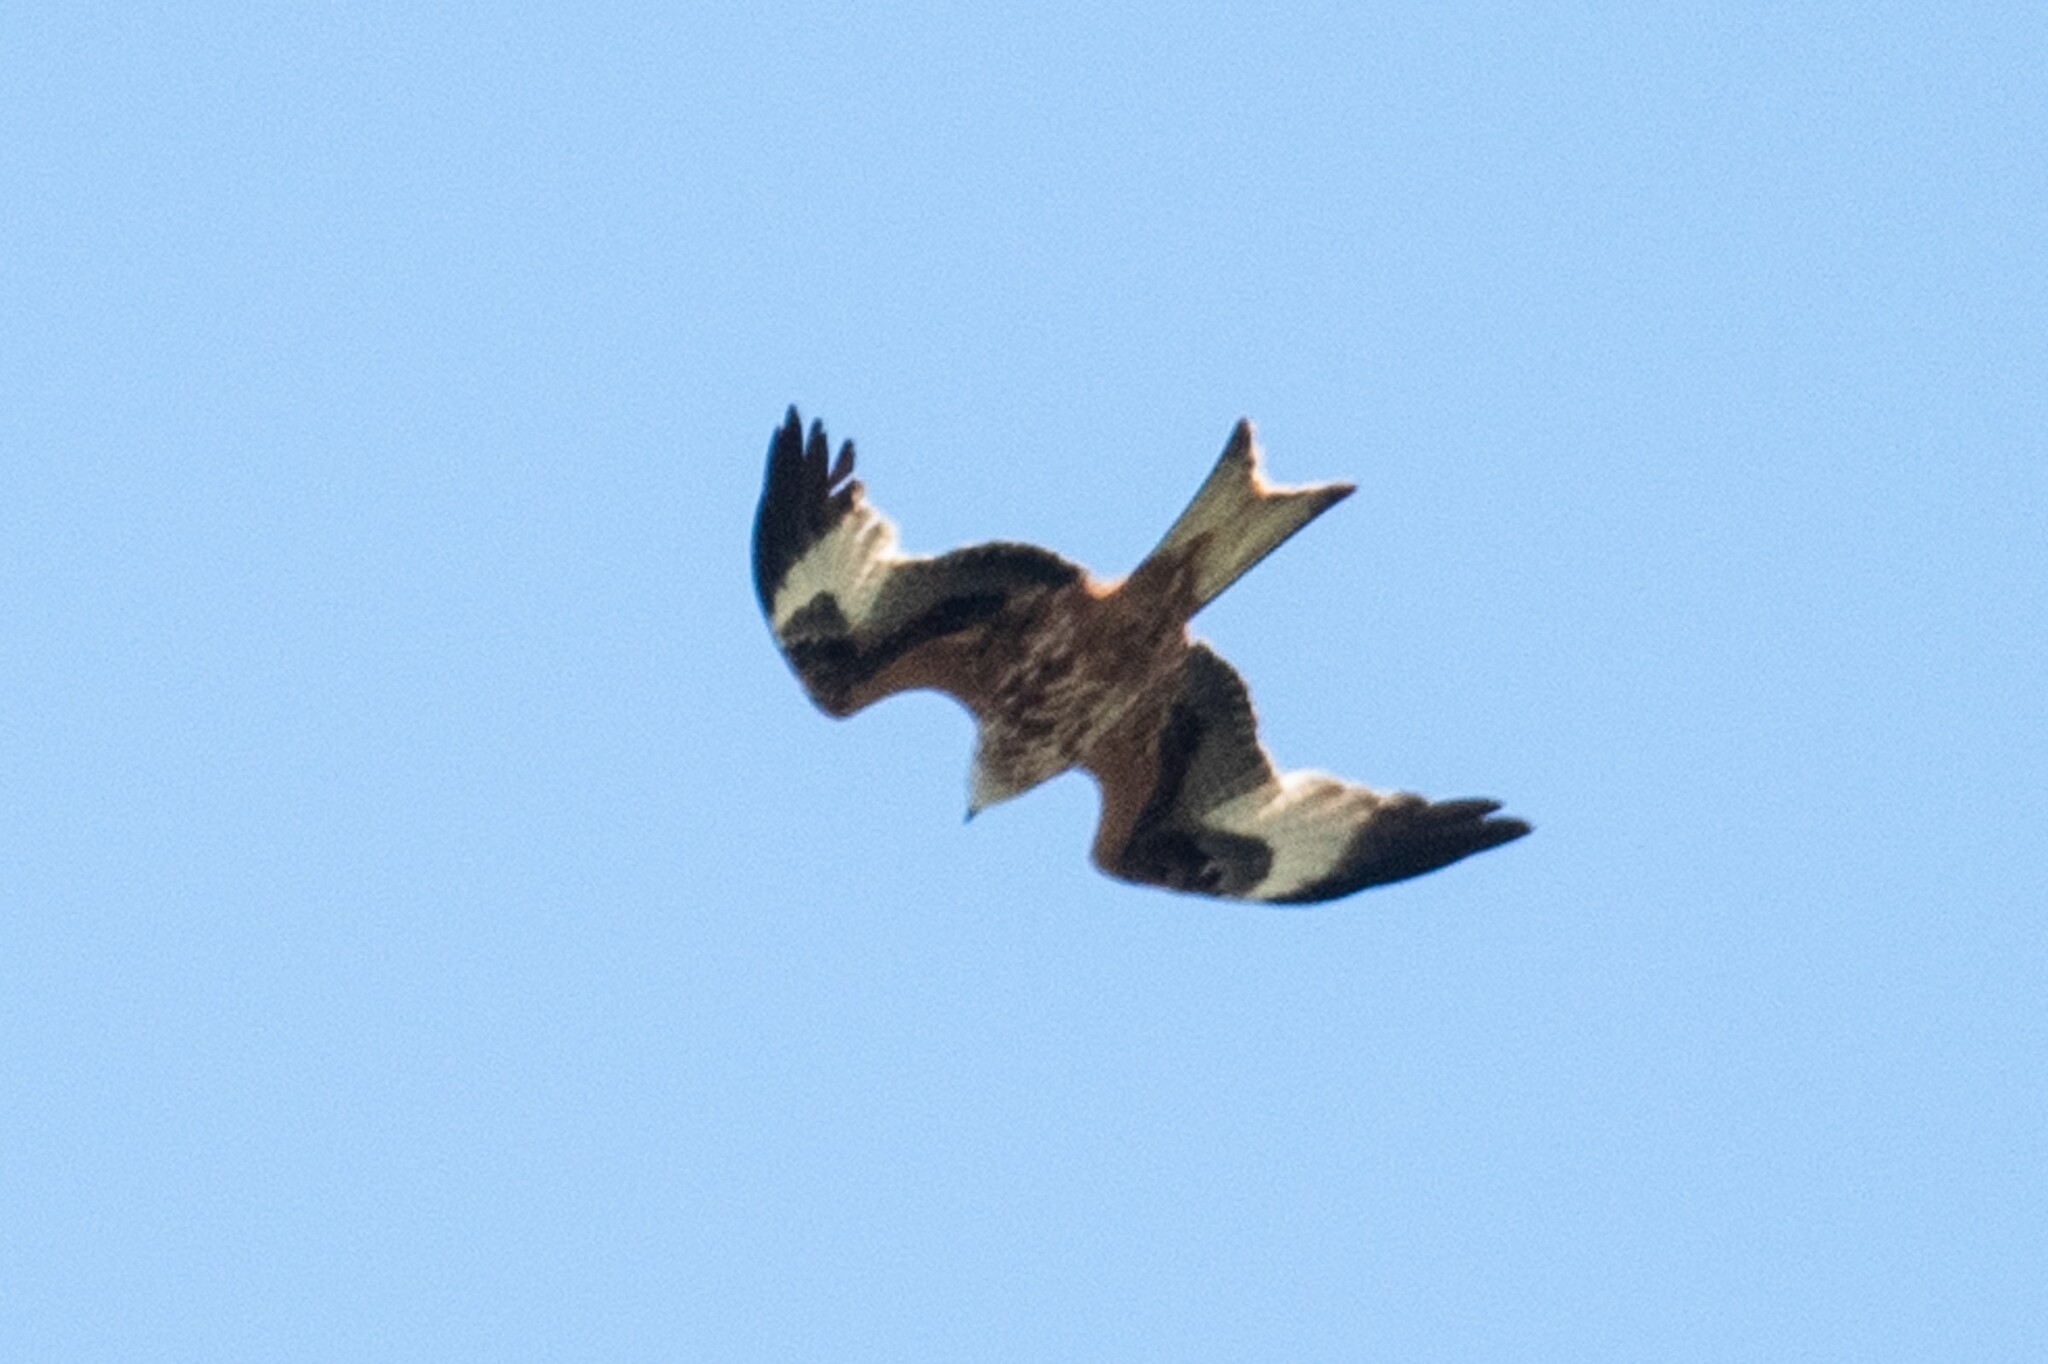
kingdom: Animalia
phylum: Chordata
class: Aves
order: Accipitriformes
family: Accipitridae
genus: Milvus
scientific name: Milvus milvus
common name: Red kite
